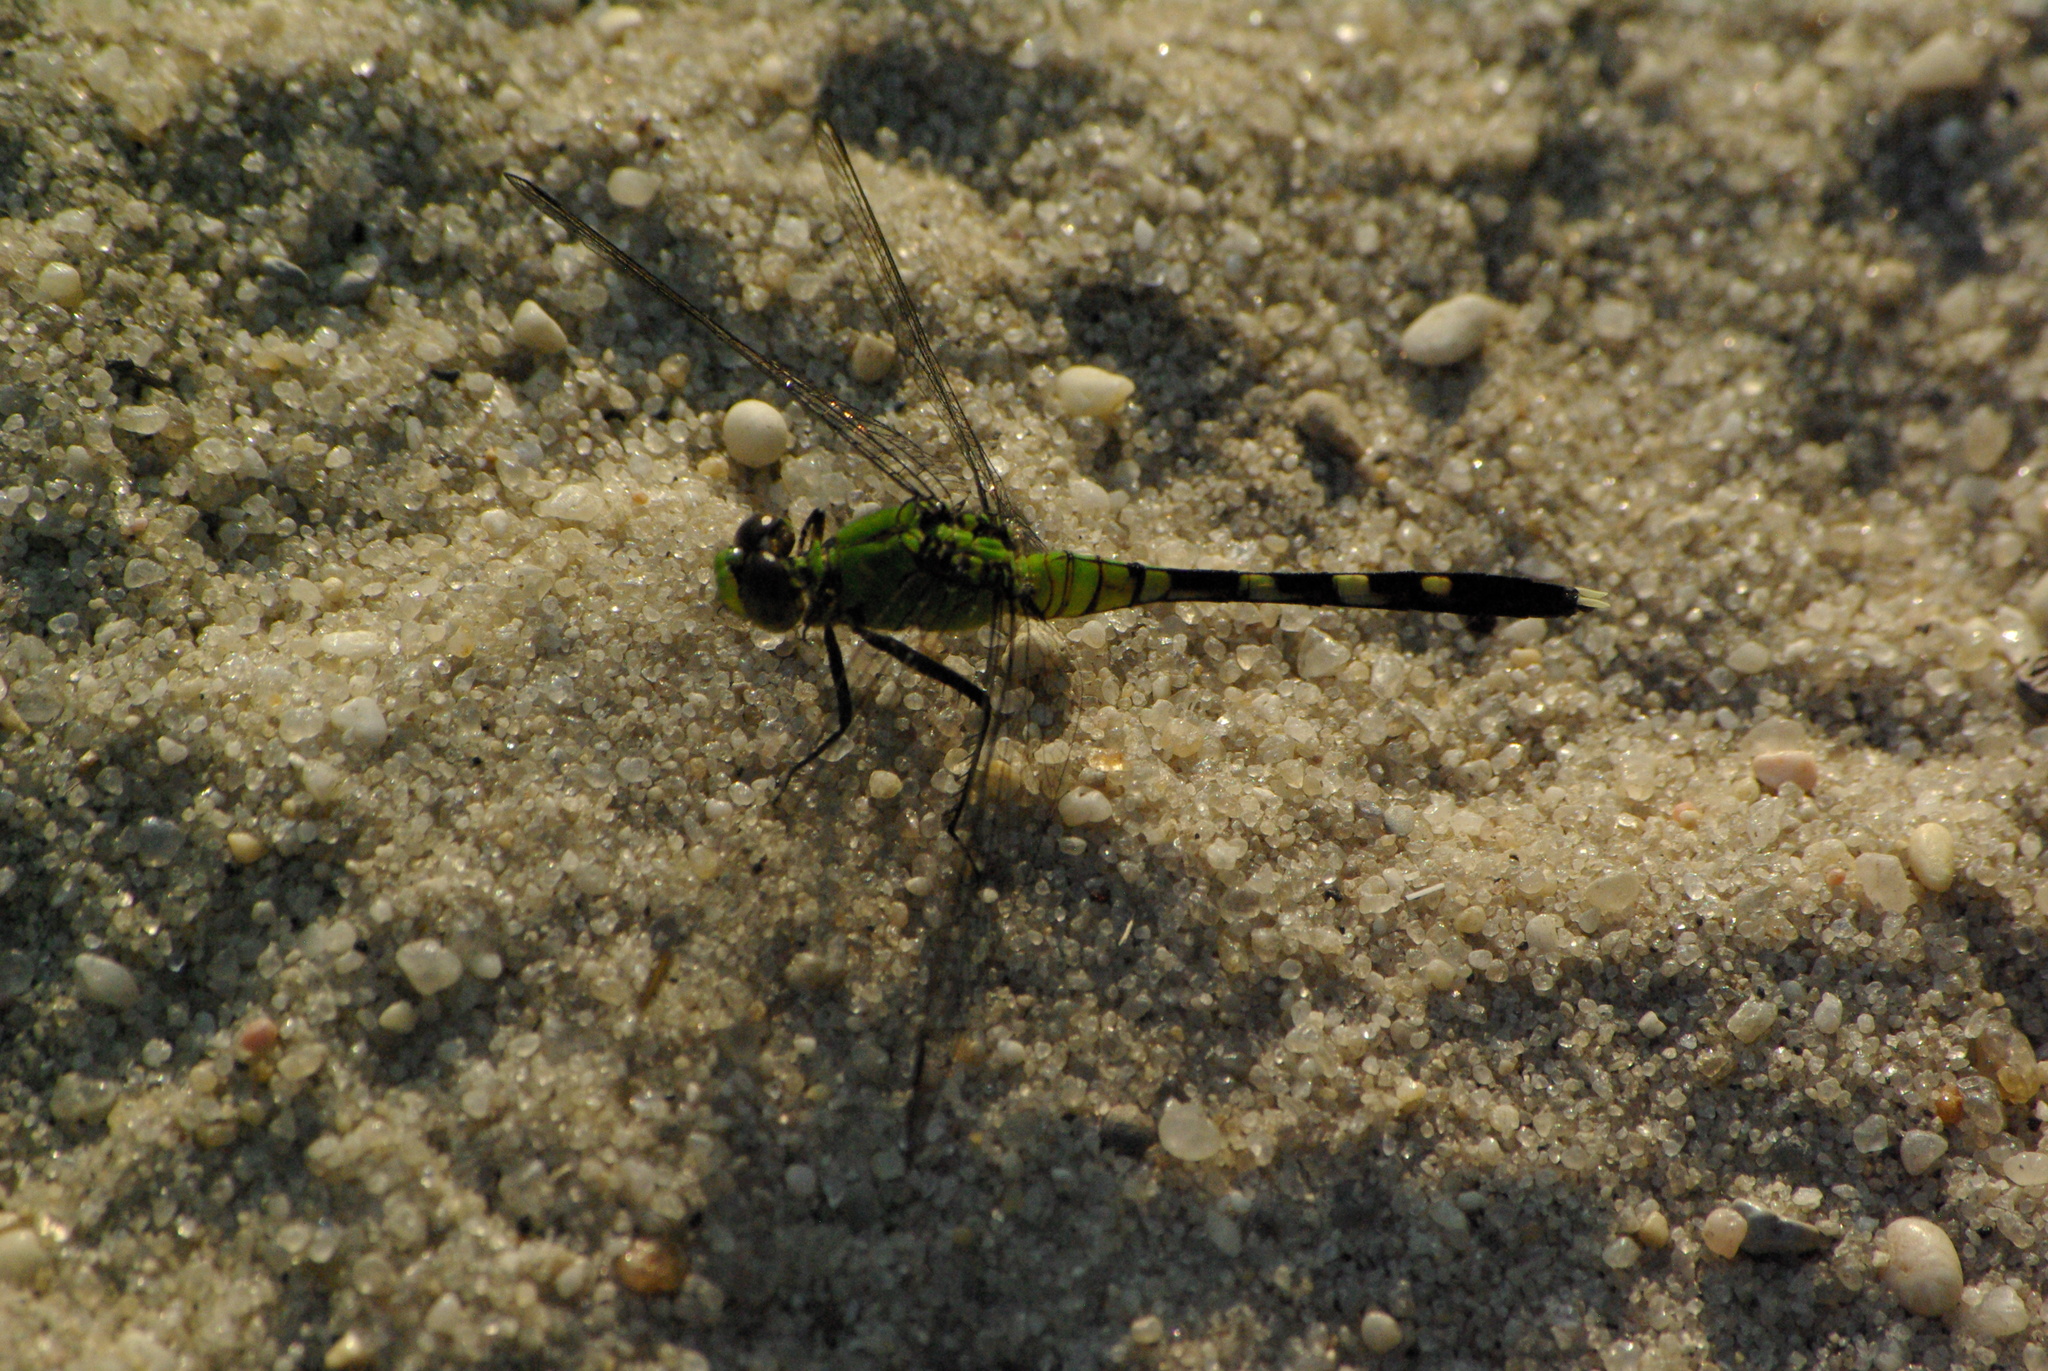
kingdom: Animalia
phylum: Arthropoda
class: Insecta
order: Odonata
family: Libellulidae
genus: Erythemis
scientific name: Erythemis simplicicollis
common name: Eastern pondhawk
